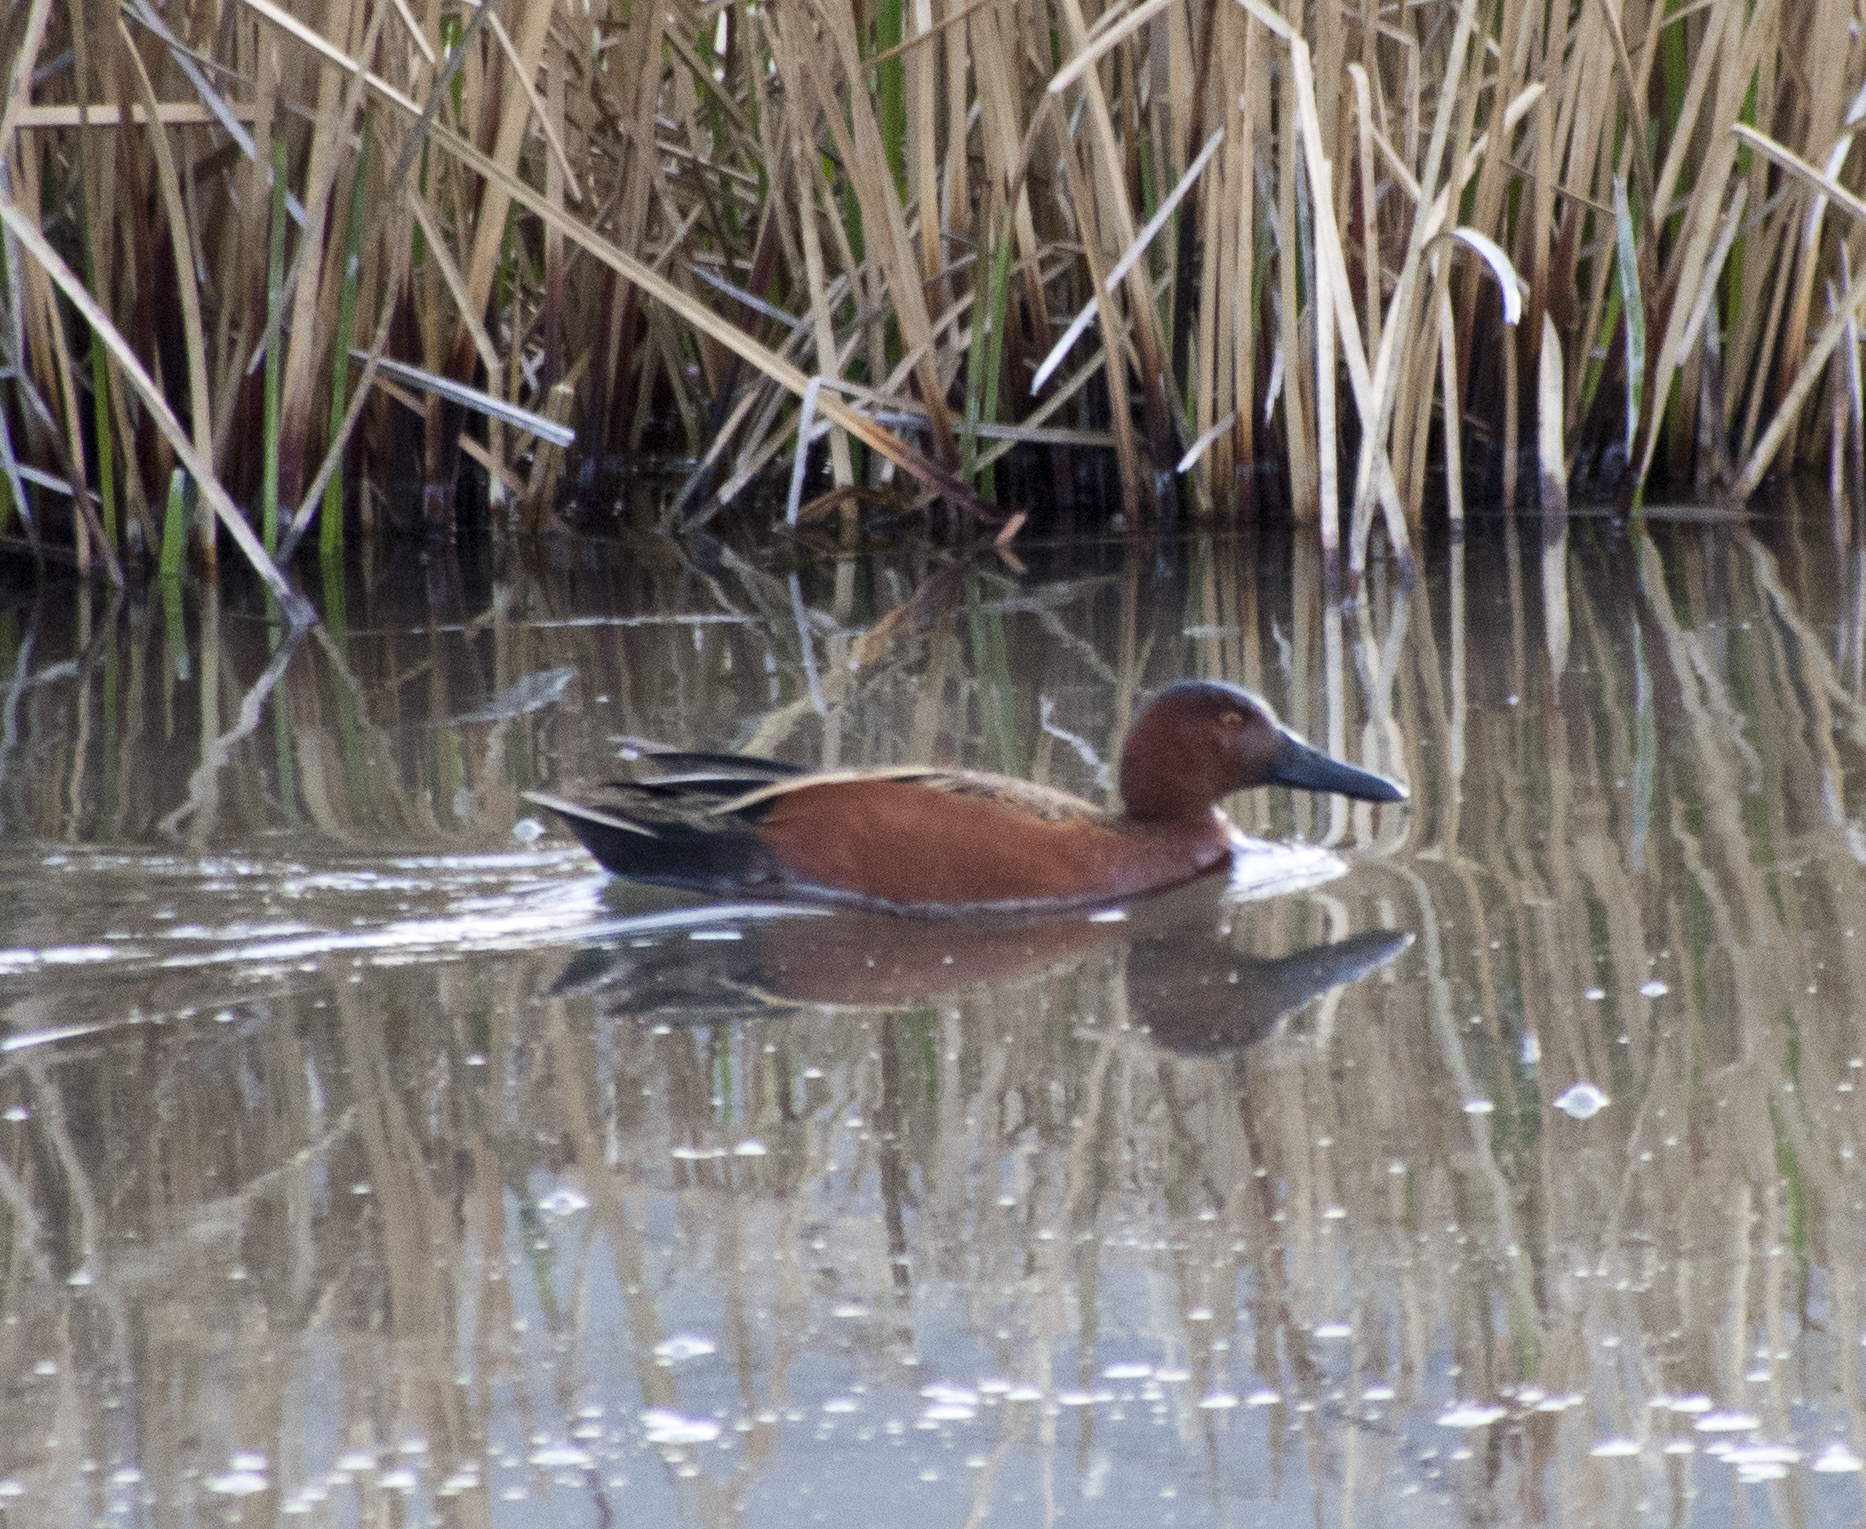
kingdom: Animalia
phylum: Chordata
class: Aves
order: Anseriformes
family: Anatidae
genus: Spatula
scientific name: Spatula cyanoptera
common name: Cinnamon teal
